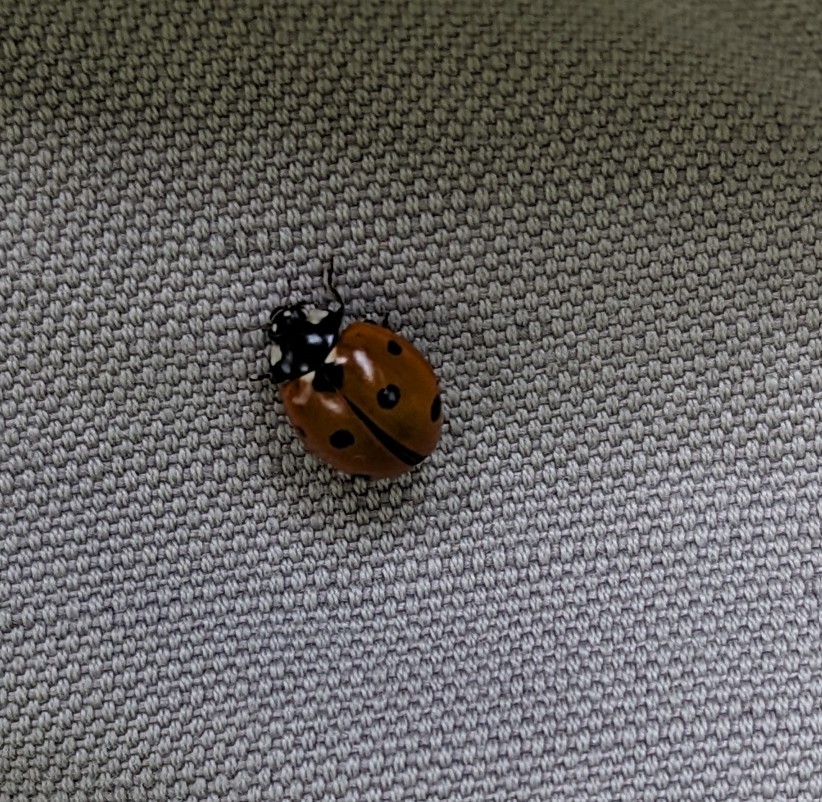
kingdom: Animalia
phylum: Arthropoda
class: Insecta
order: Coleoptera
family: Coccinellidae
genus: Coccinella
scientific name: Coccinella septempunctata
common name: Sevenspotted lady beetle
